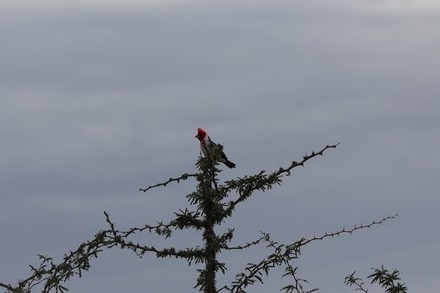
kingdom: Animalia
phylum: Chordata
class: Aves
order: Passeriformes
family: Thraupidae
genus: Paroaria
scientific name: Paroaria coronata
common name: Red-crested cardinal
